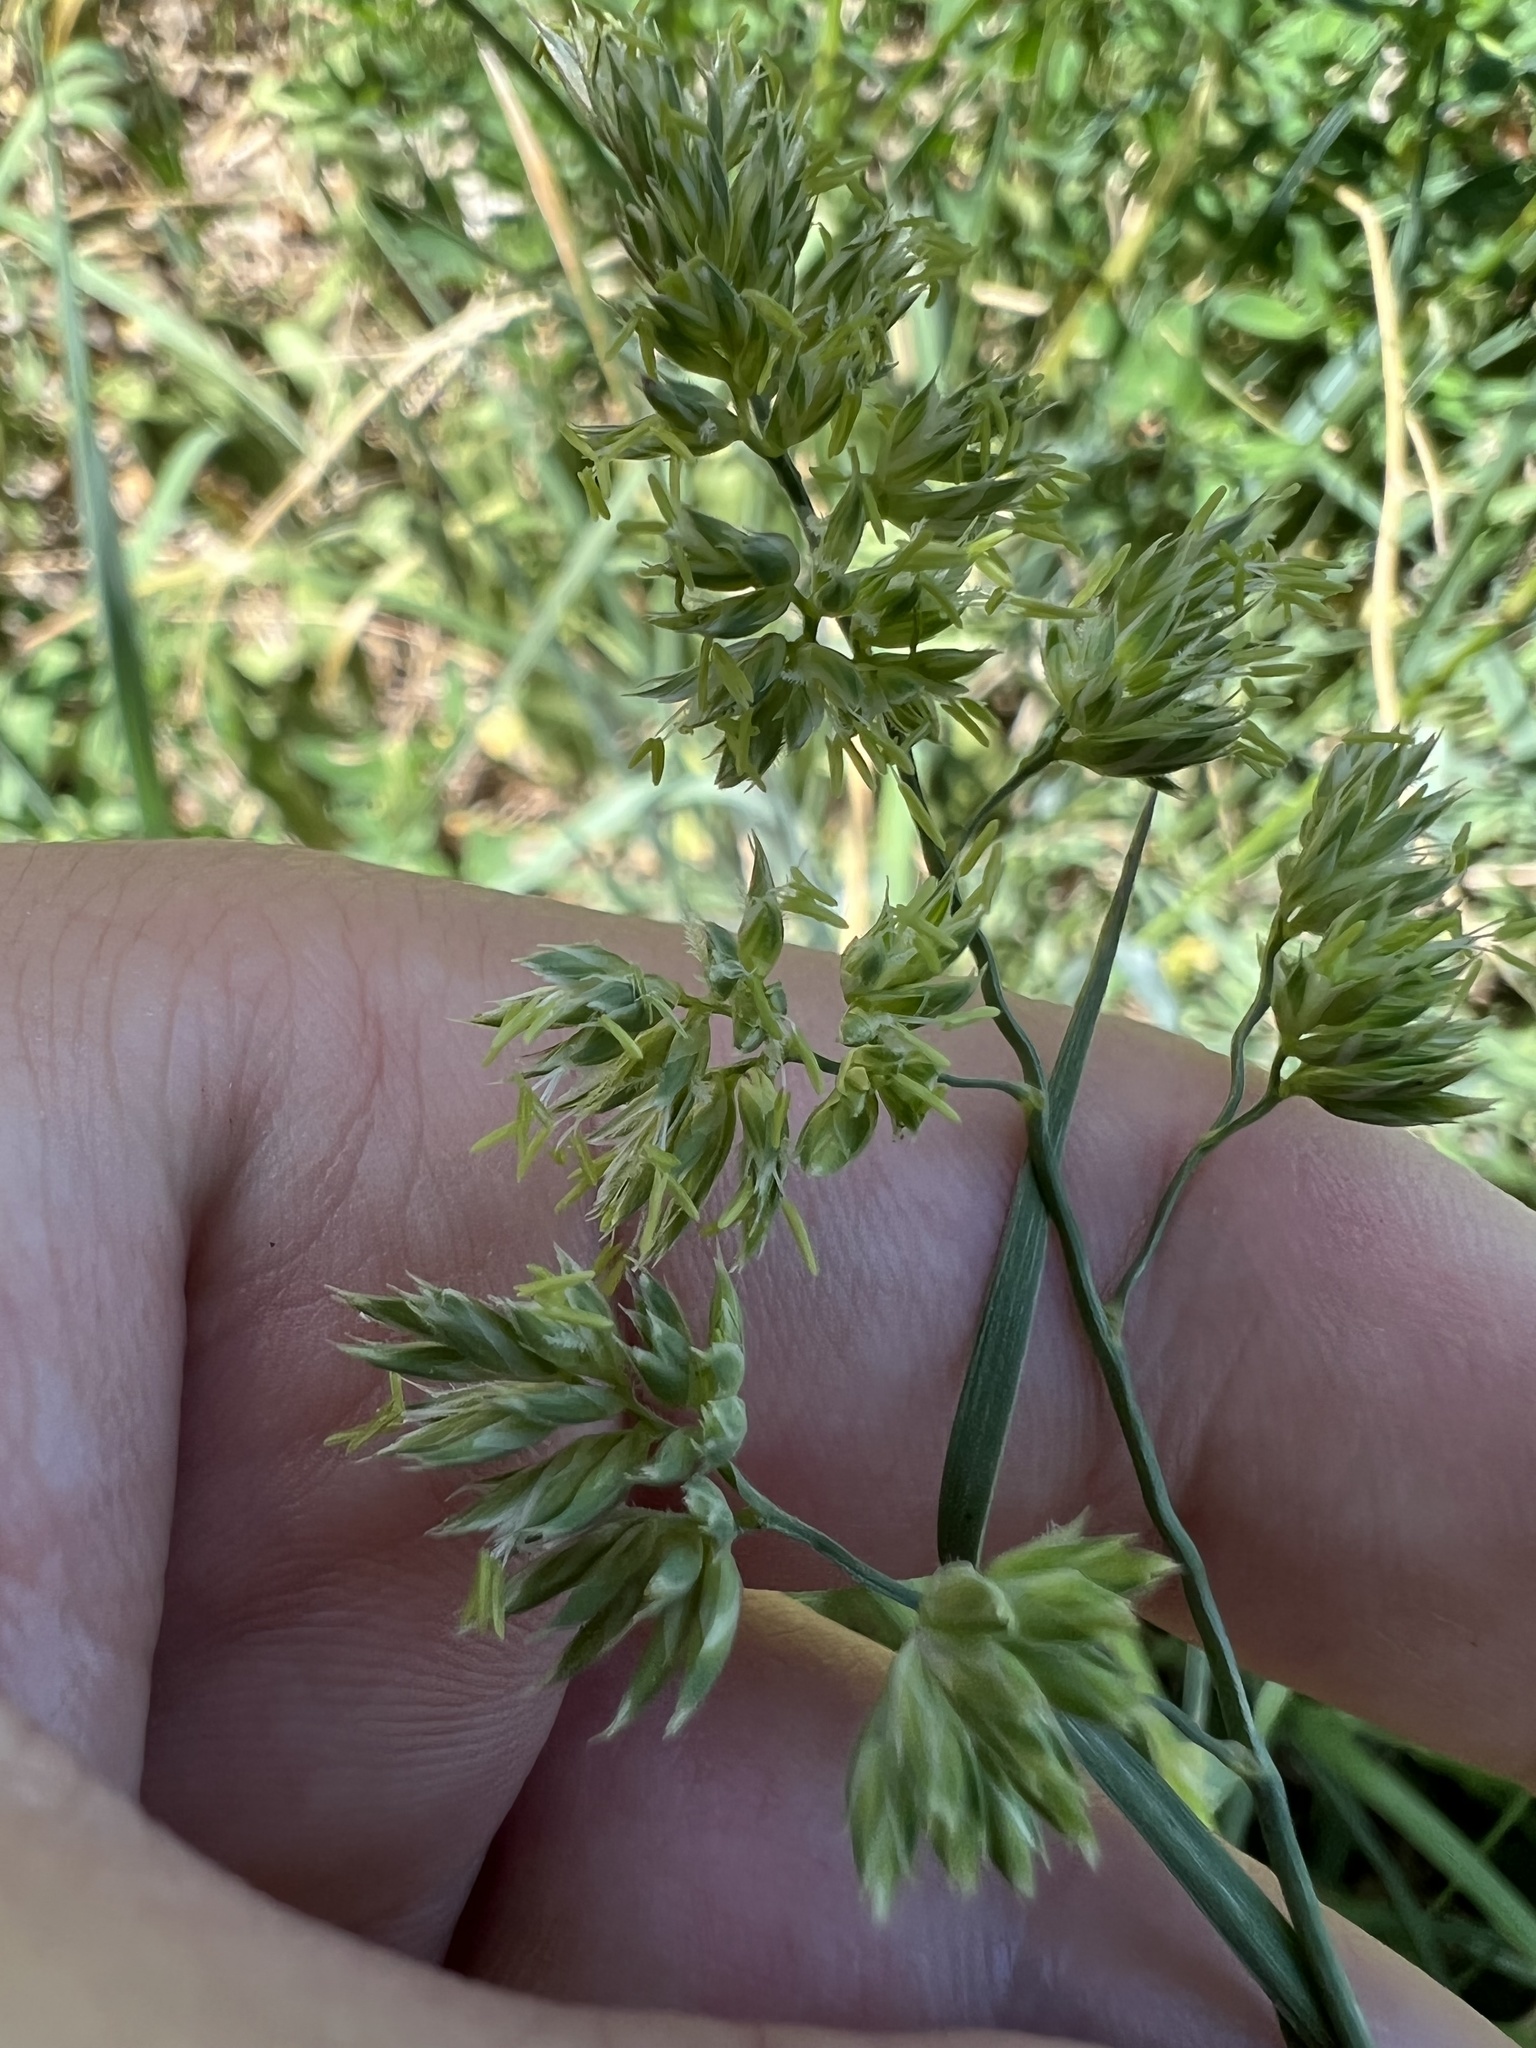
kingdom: Plantae
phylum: Tracheophyta
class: Liliopsida
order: Poales
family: Poaceae
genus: Poa
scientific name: Poa bulbosa
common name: Bulbous bluegrass
